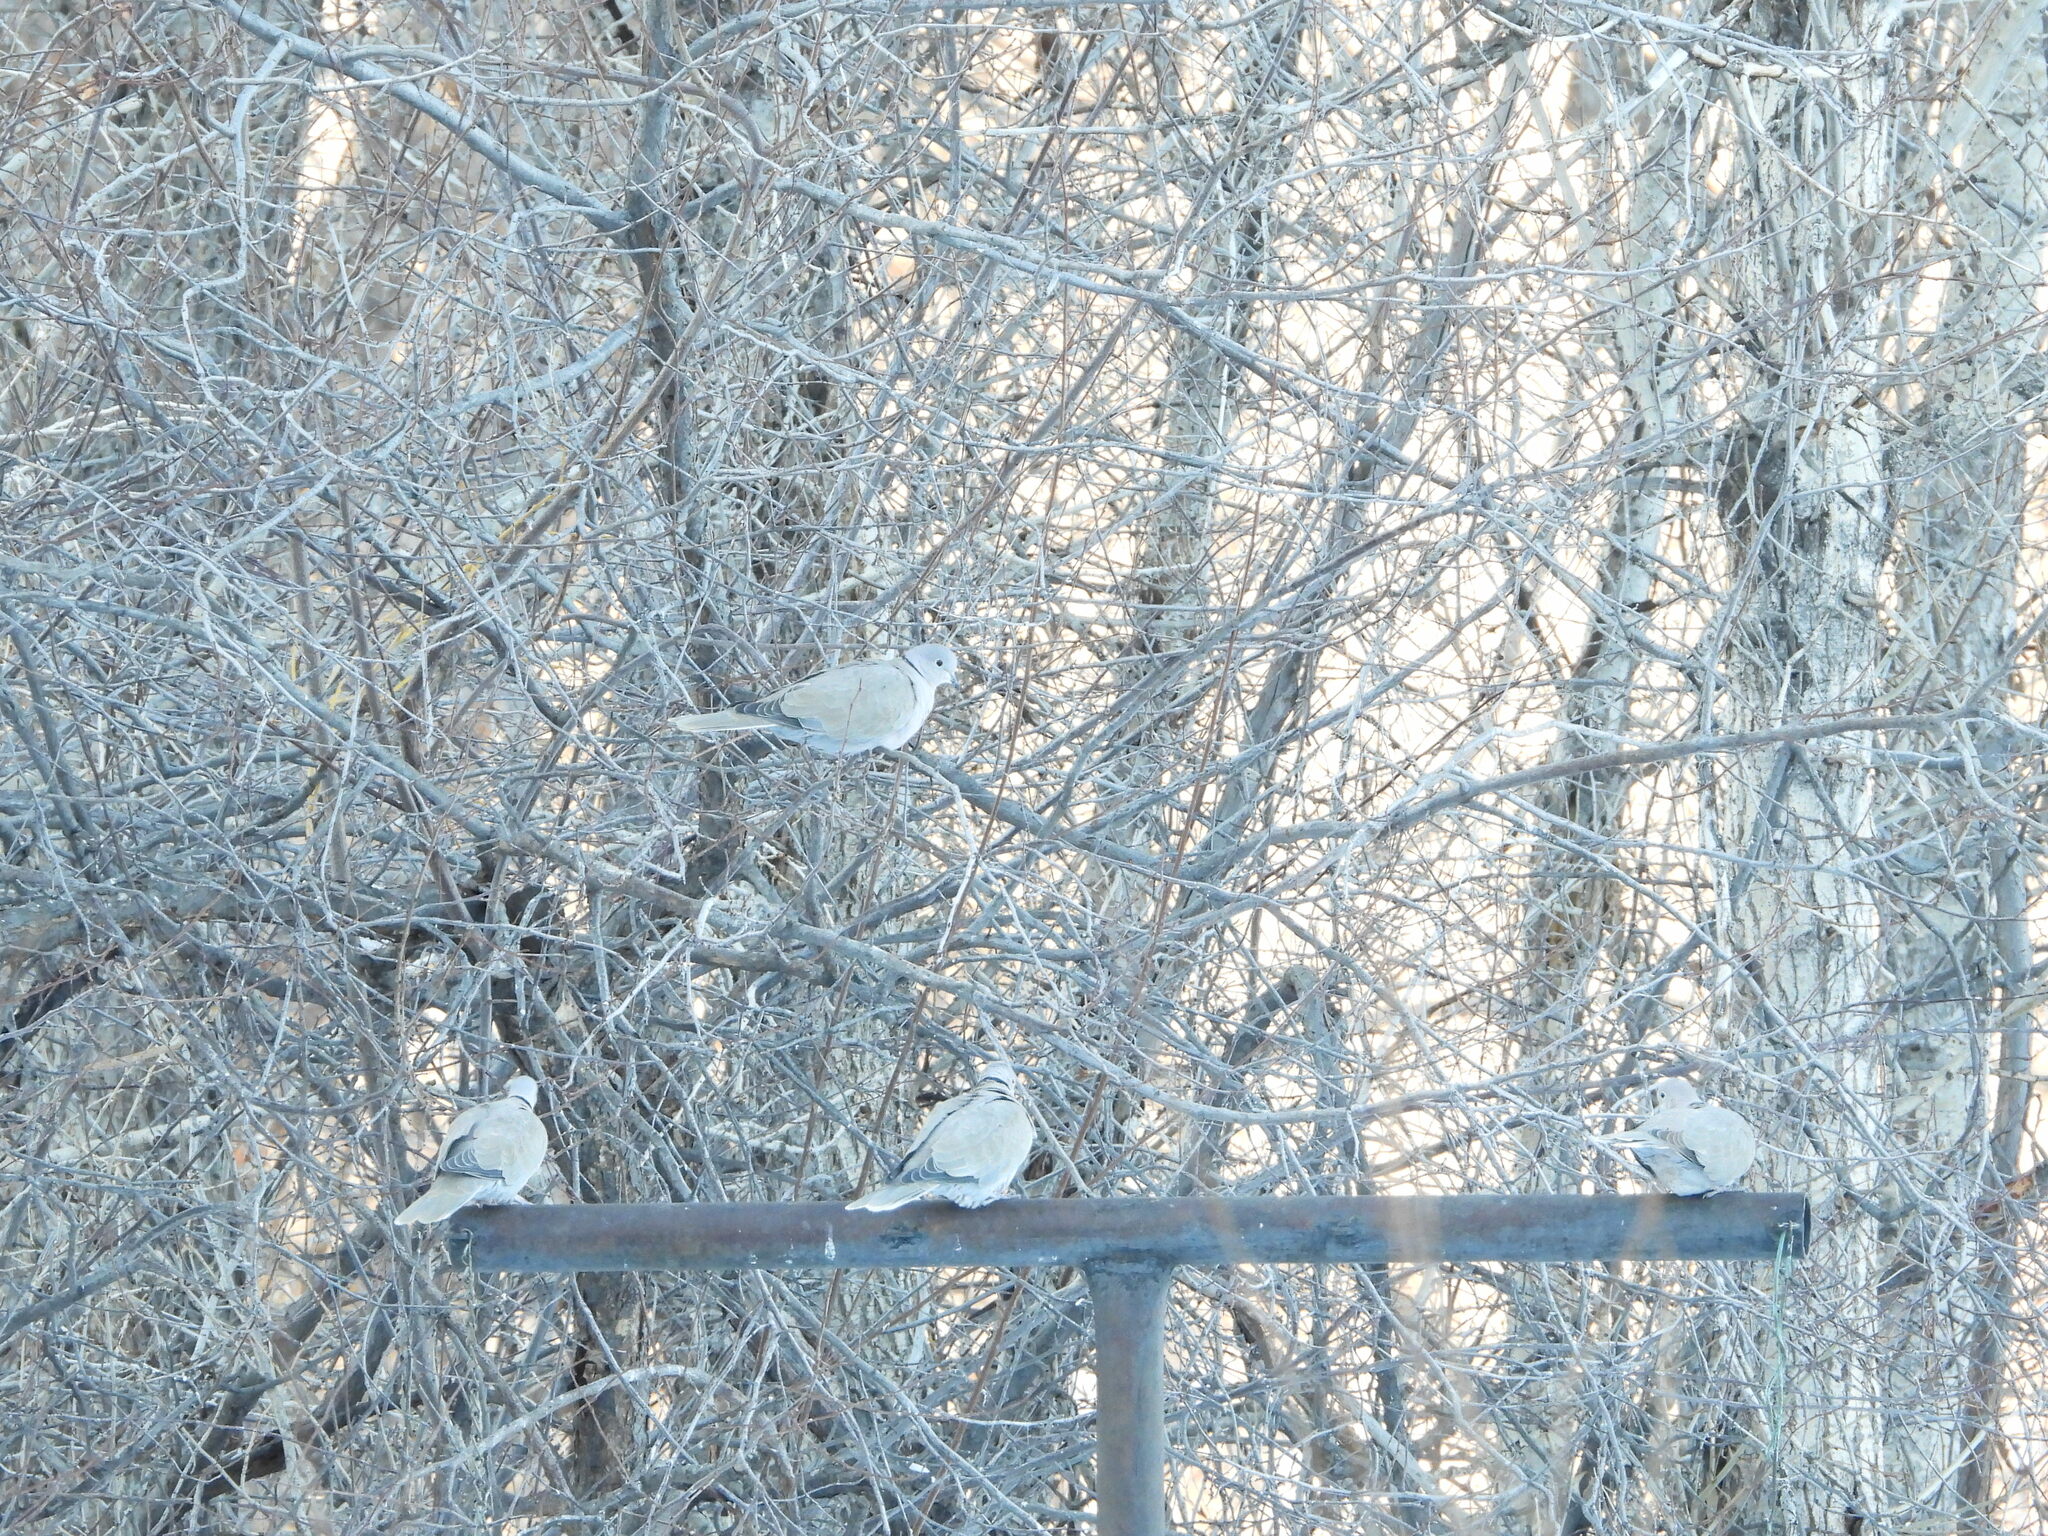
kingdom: Animalia
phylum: Chordata
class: Aves
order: Columbiformes
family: Columbidae
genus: Streptopelia
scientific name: Streptopelia decaocto
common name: Eurasian collared dove
